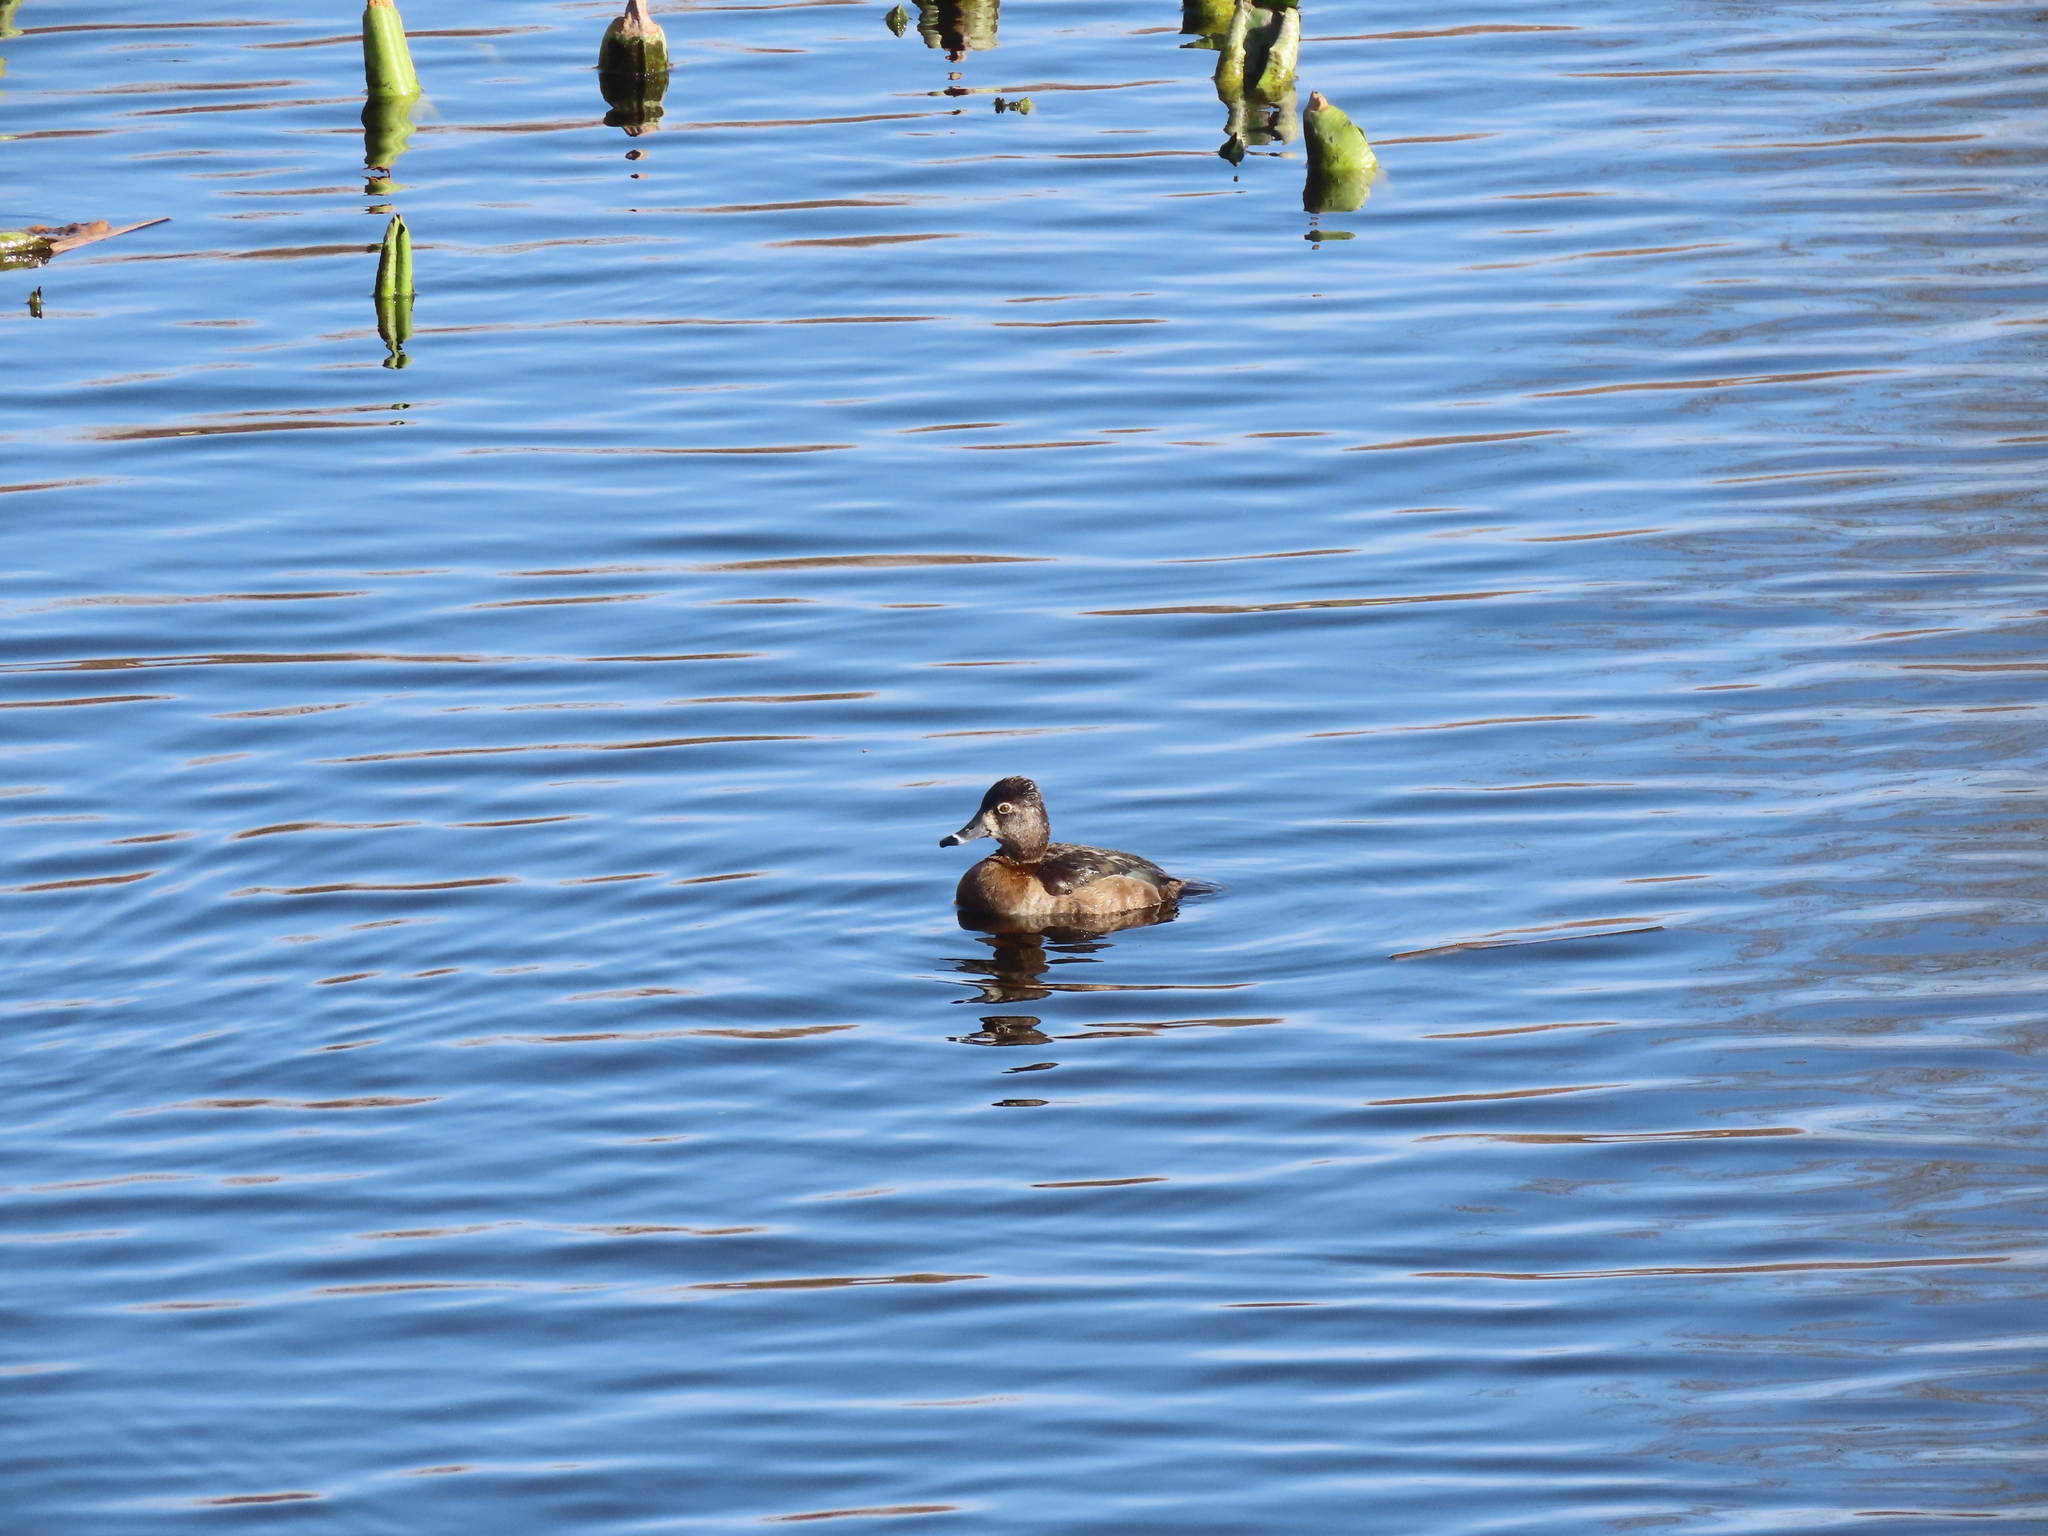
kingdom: Animalia
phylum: Chordata
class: Aves
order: Anseriformes
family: Anatidae
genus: Aythya
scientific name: Aythya collaris
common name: Ring-necked duck
